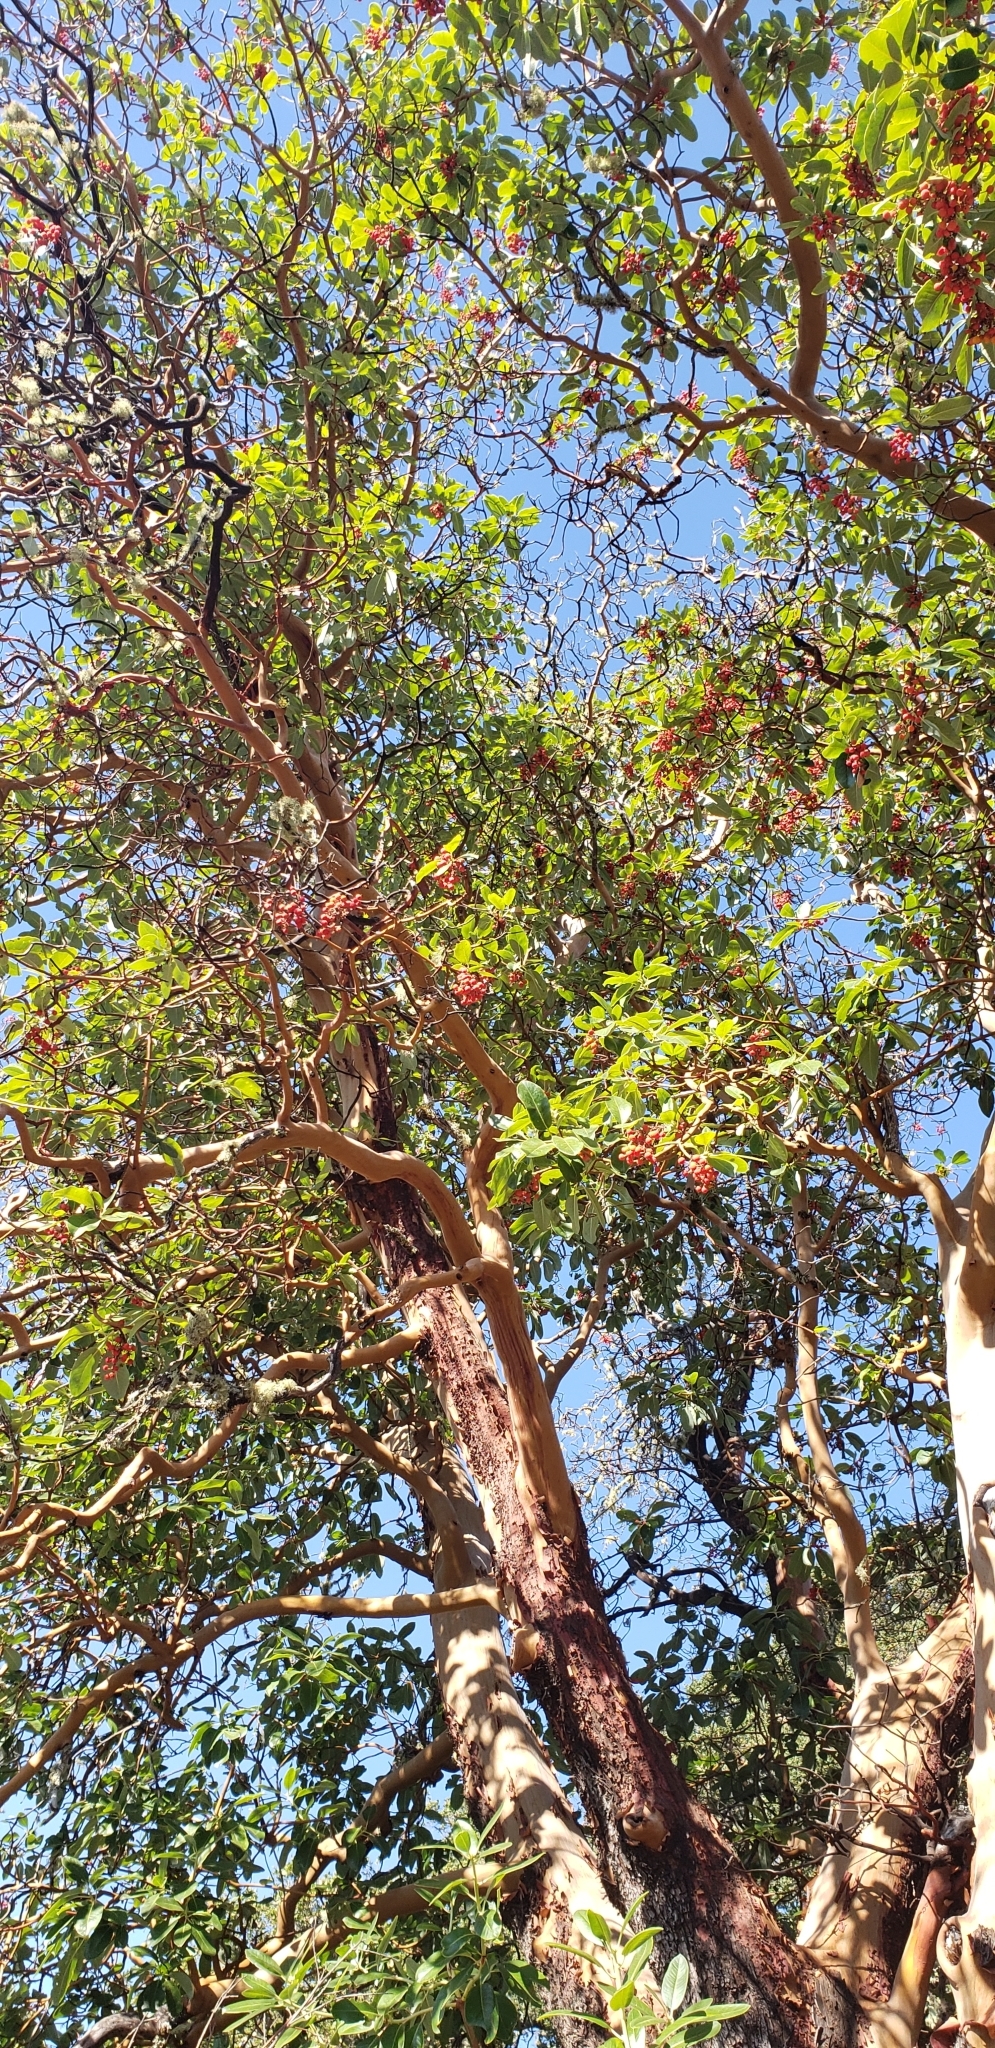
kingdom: Plantae
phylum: Tracheophyta
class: Magnoliopsida
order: Ericales
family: Ericaceae
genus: Arbutus
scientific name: Arbutus menziesii
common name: Pacific madrone
